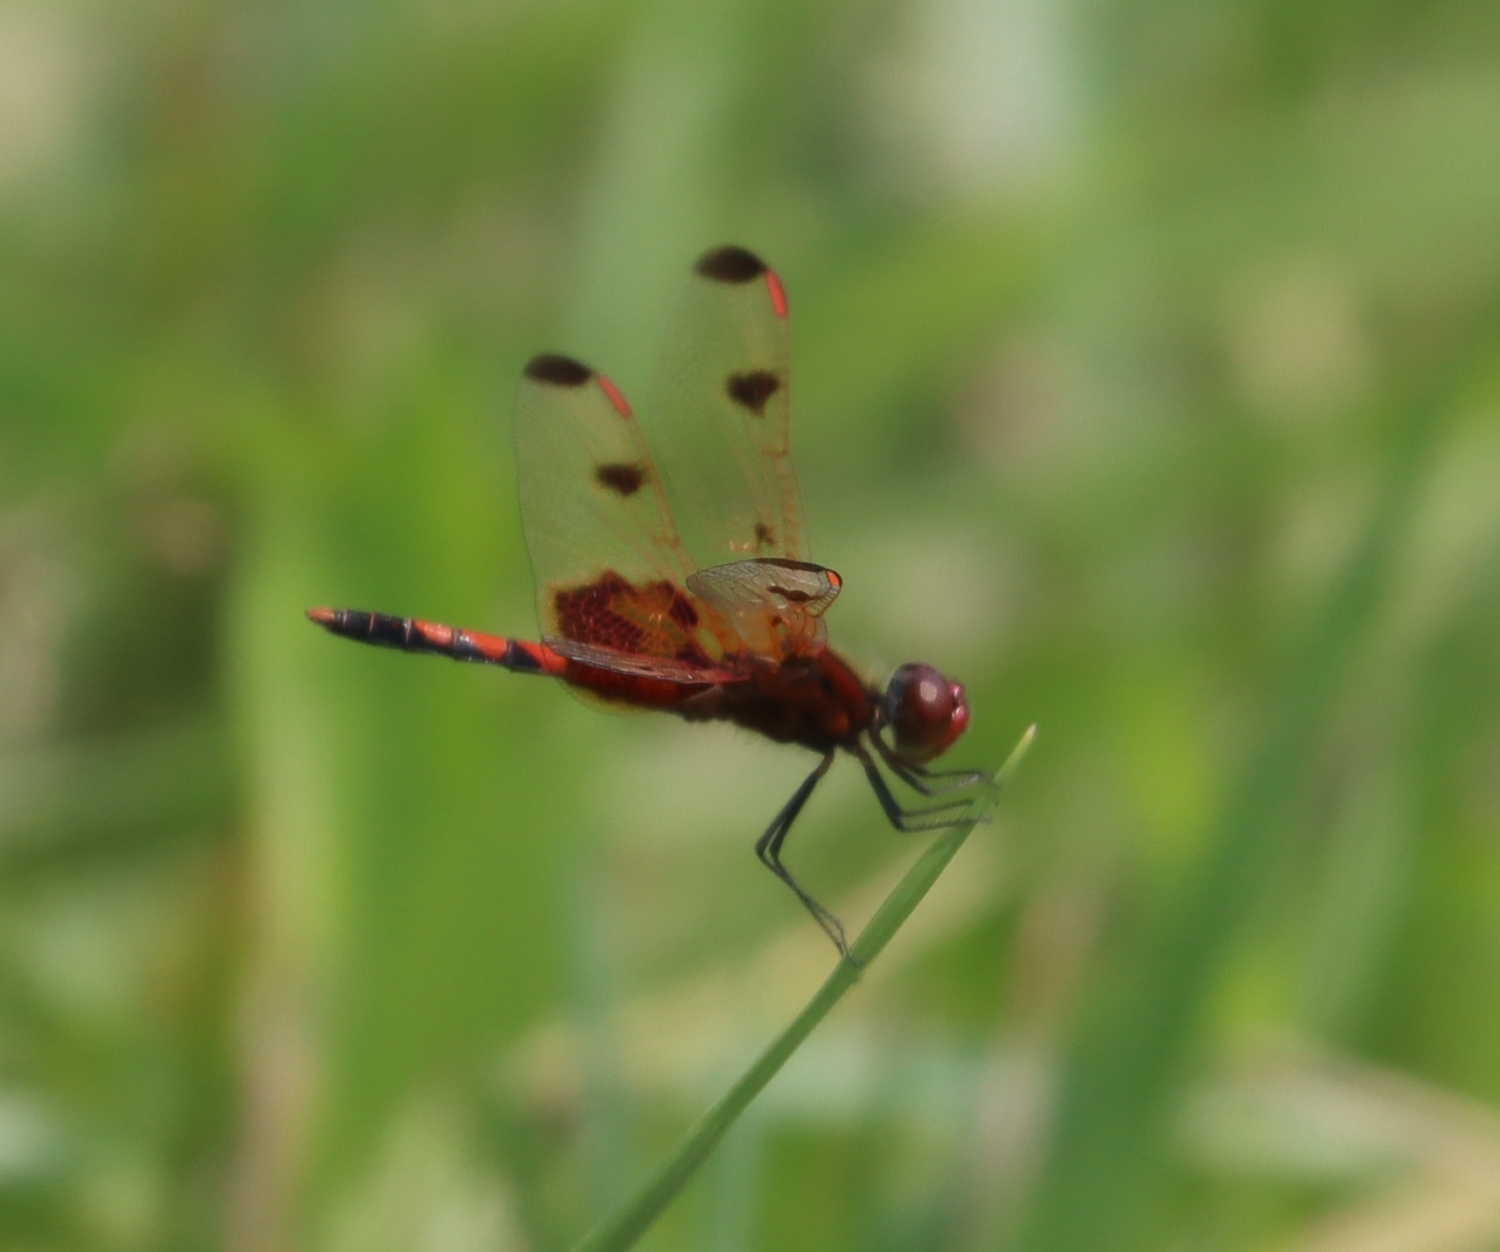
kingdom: Animalia
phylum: Arthropoda
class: Insecta
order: Odonata
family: Libellulidae
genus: Celithemis
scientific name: Celithemis elisa
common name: Calico pennant
